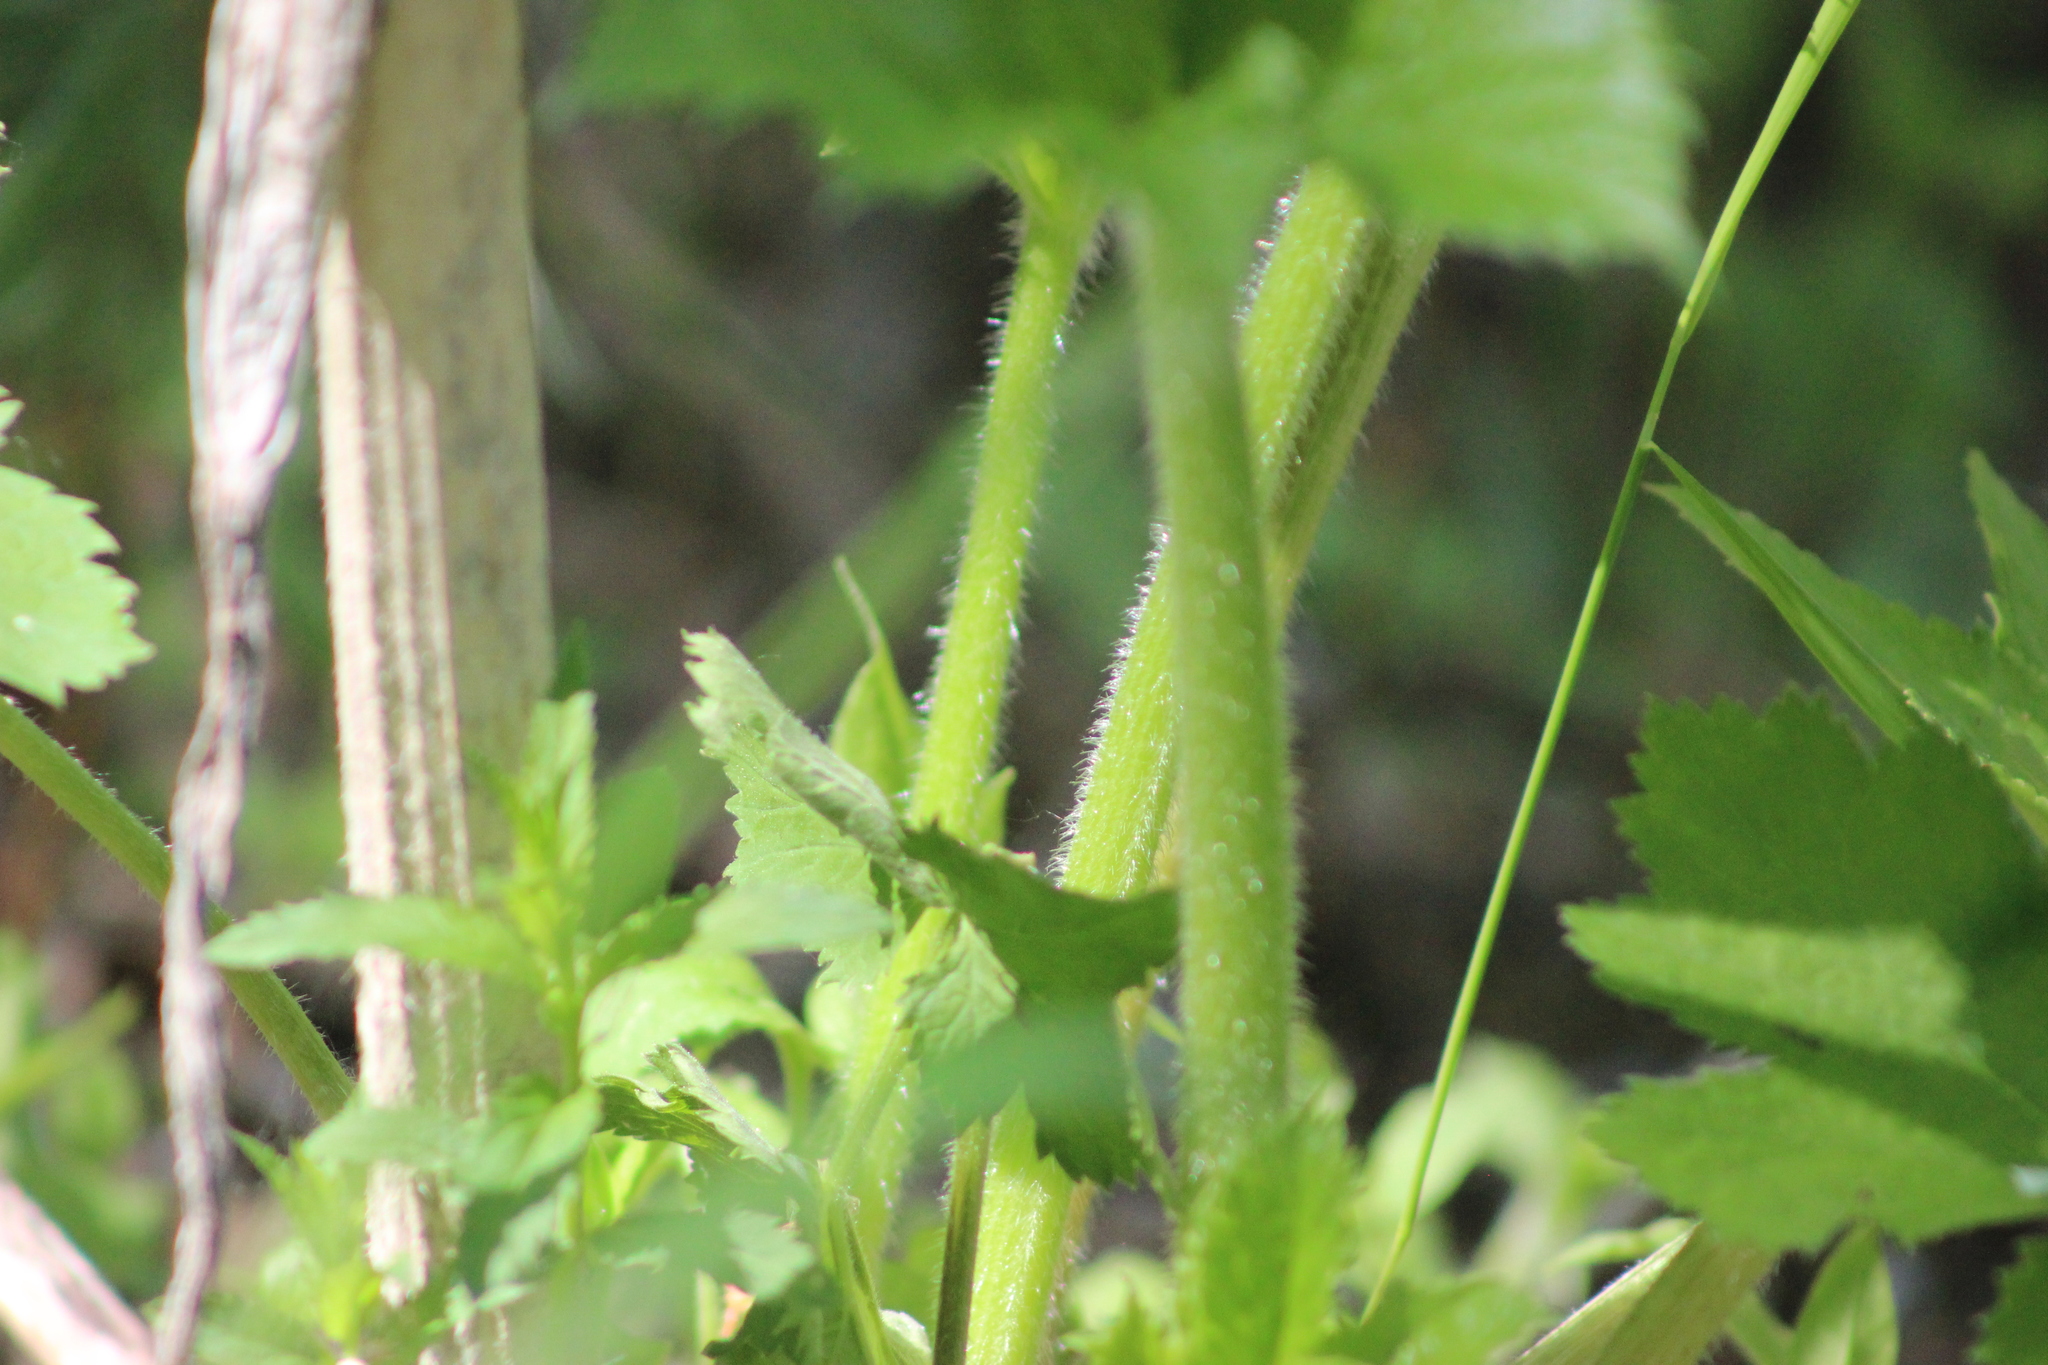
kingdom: Plantae
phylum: Tracheophyta
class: Magnoliopsida
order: Apiales
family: Apiaceae
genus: Heracleum
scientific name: Heracleum sphondylium
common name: Hogweed
